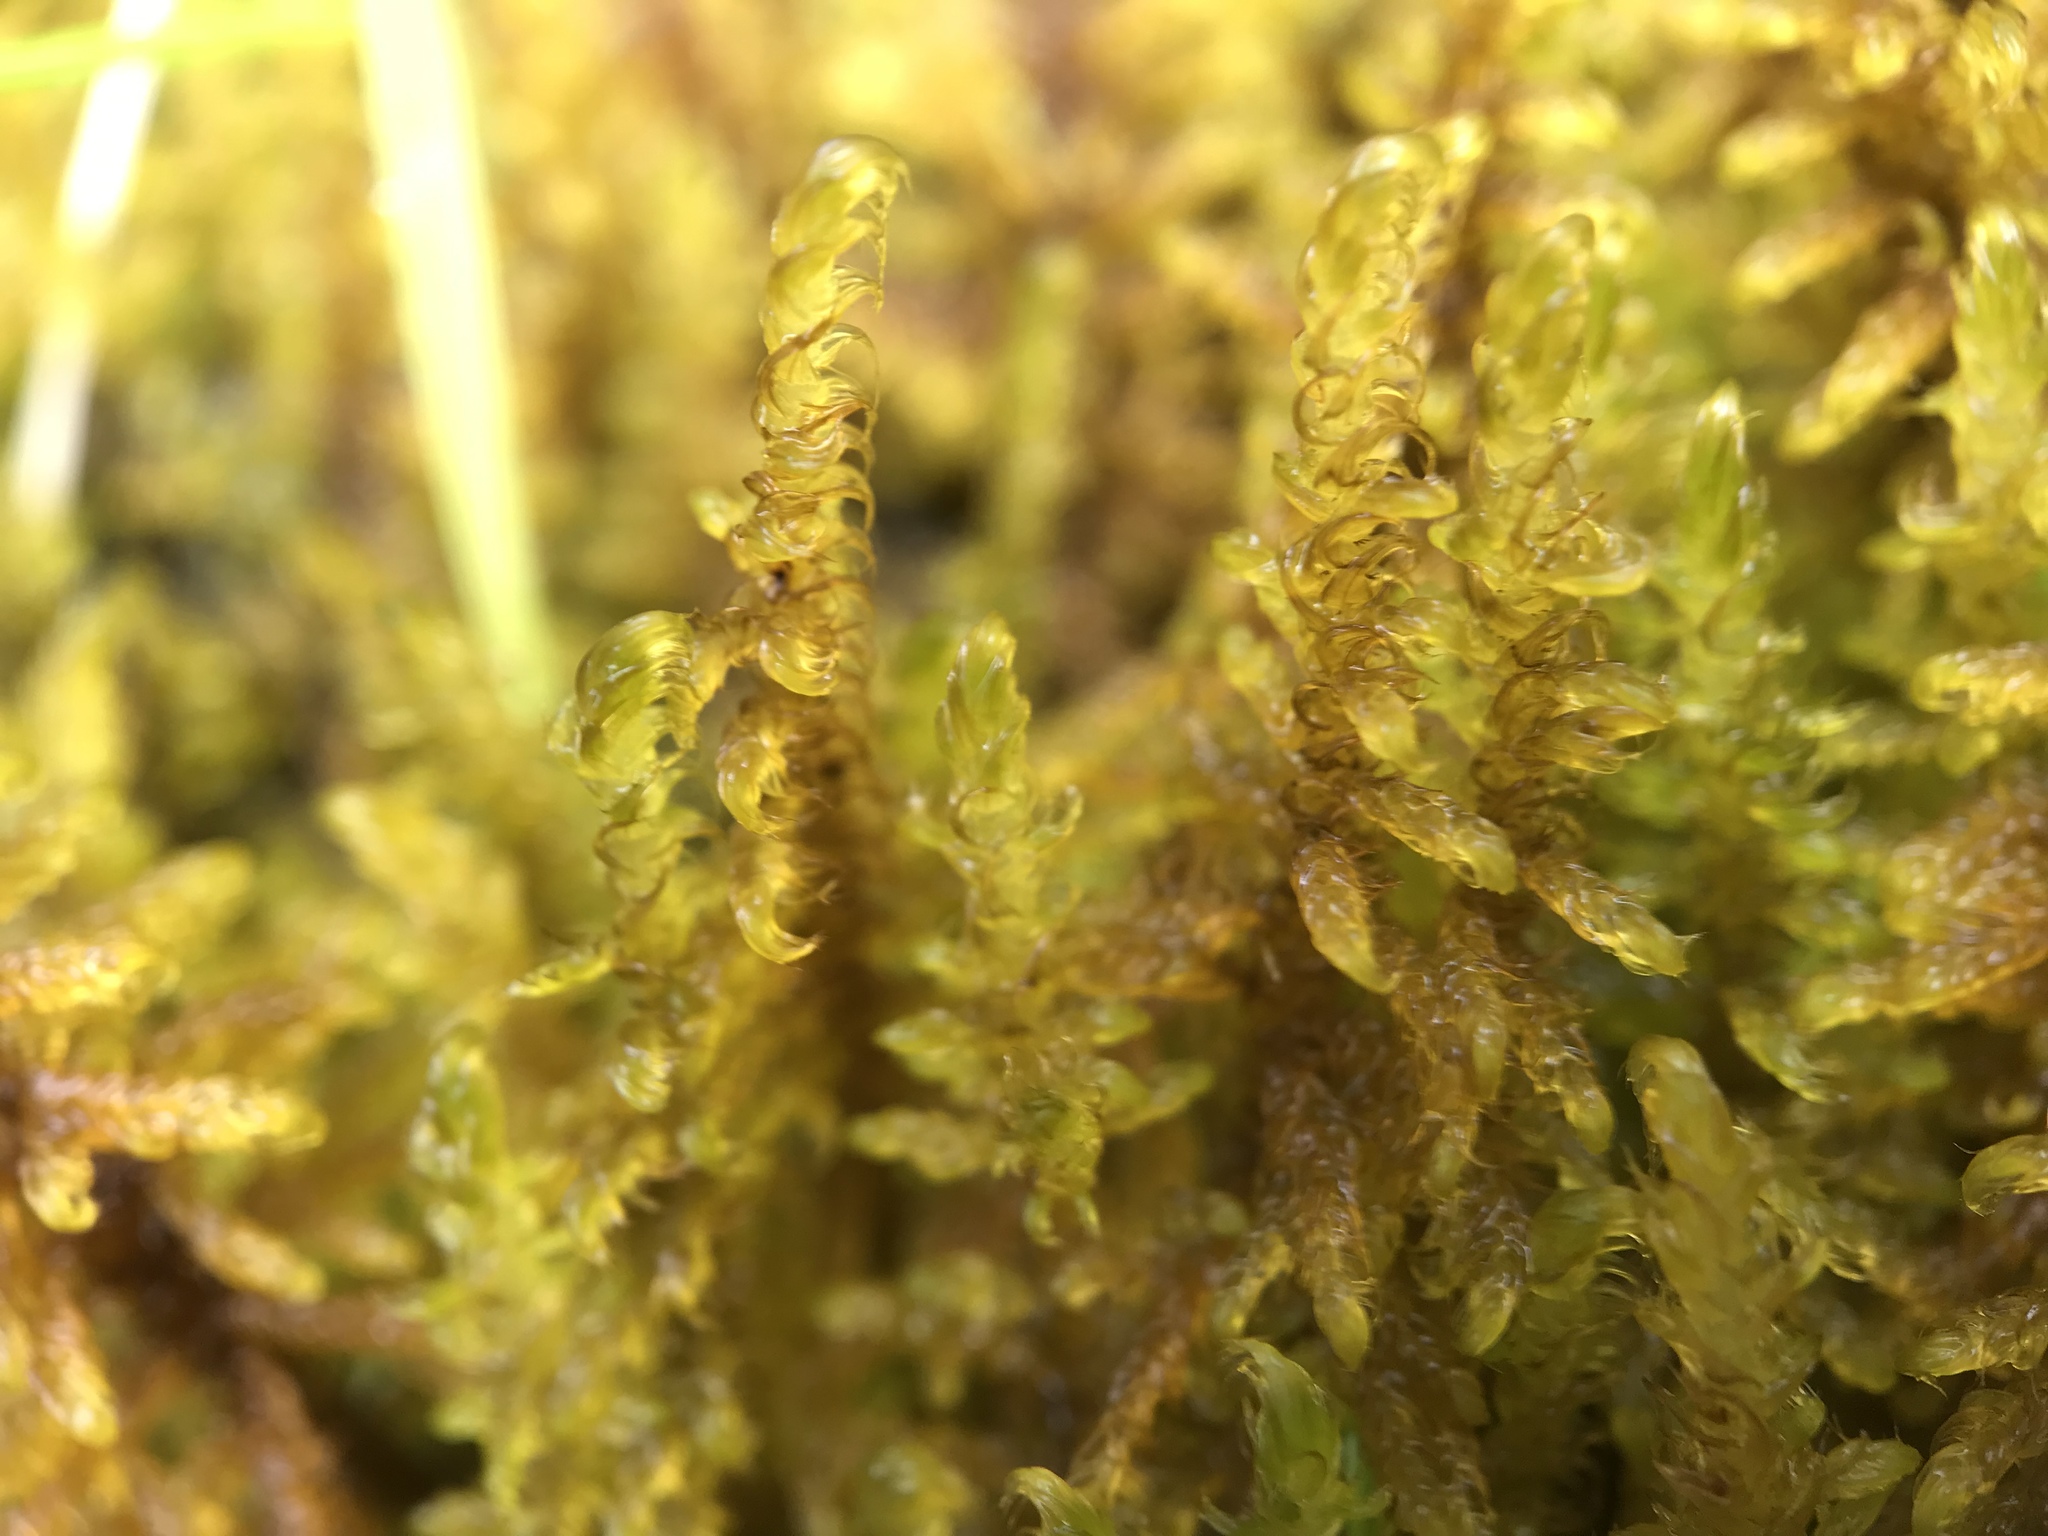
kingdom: Plantae
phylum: Bryophyta
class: Bryopsida
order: Hypnales
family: Amblystegiaceae
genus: Palustriella
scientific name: Palustriella commutata
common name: Curled hook-moss
